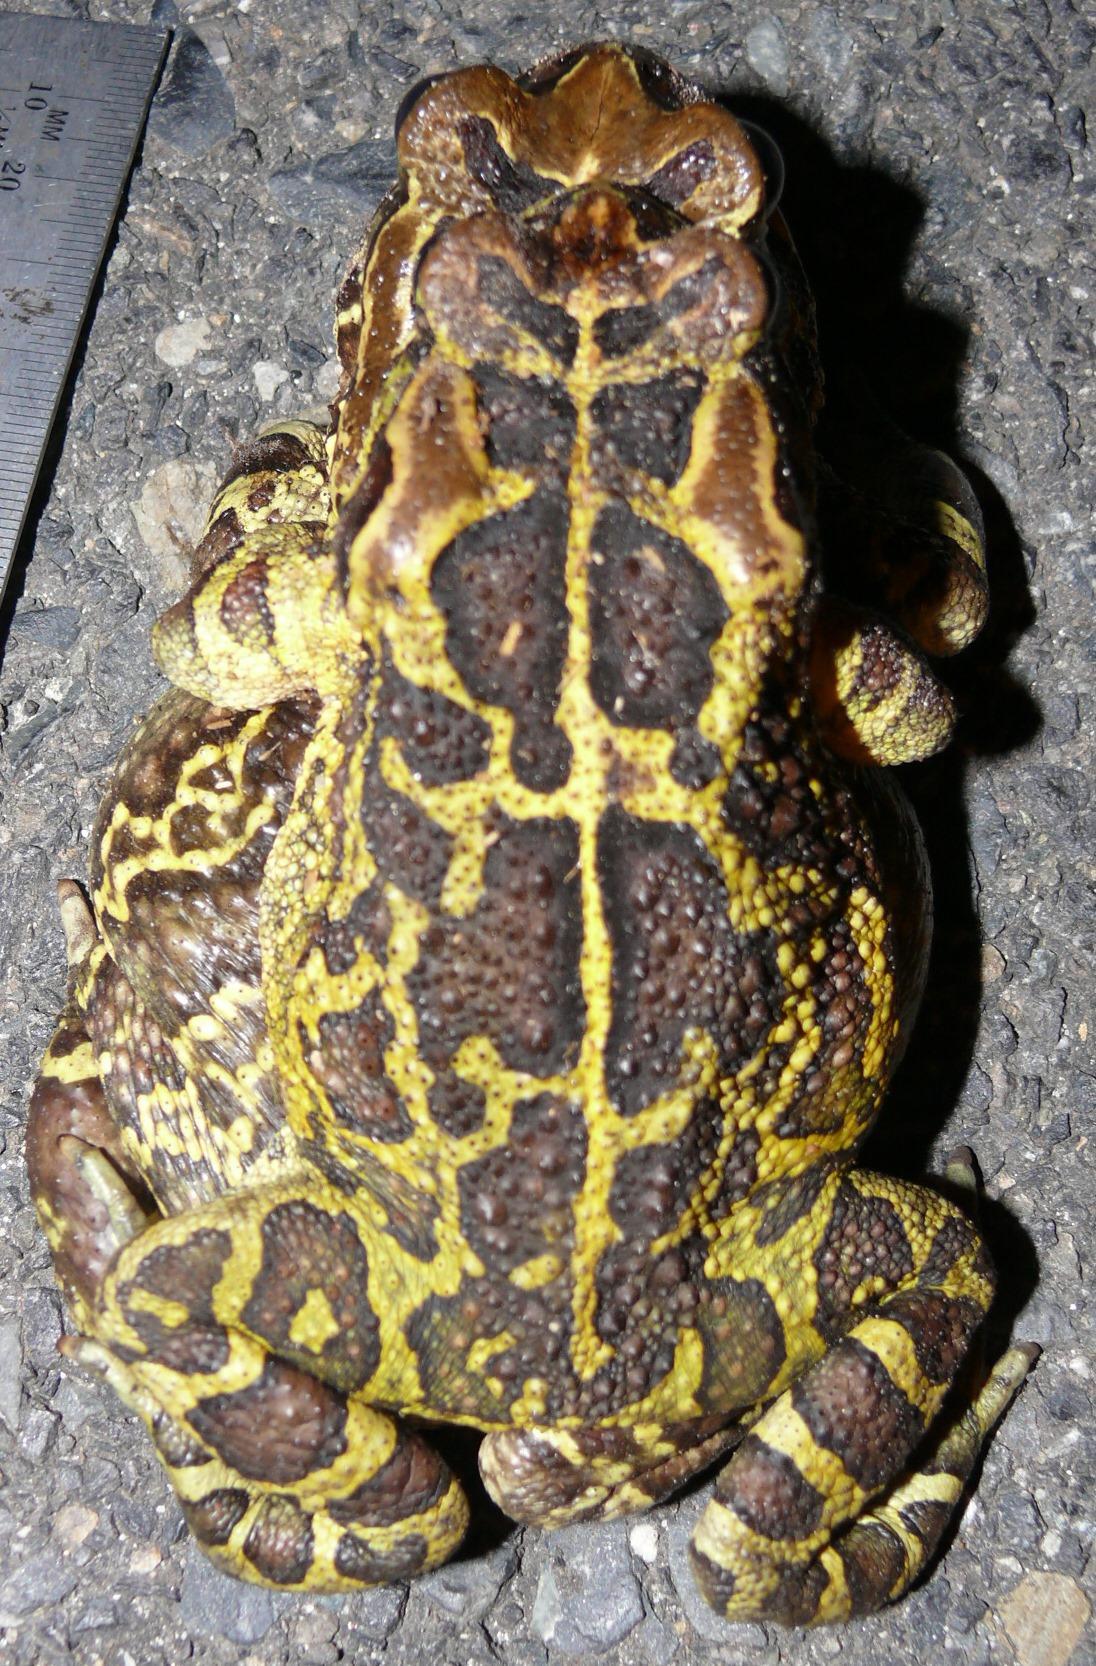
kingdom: Animalia
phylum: Chordata
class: Amphibia
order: Anura
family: Bufonidae
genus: Sclerophrys
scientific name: Sclerophrys pantherina
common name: Panther toad
